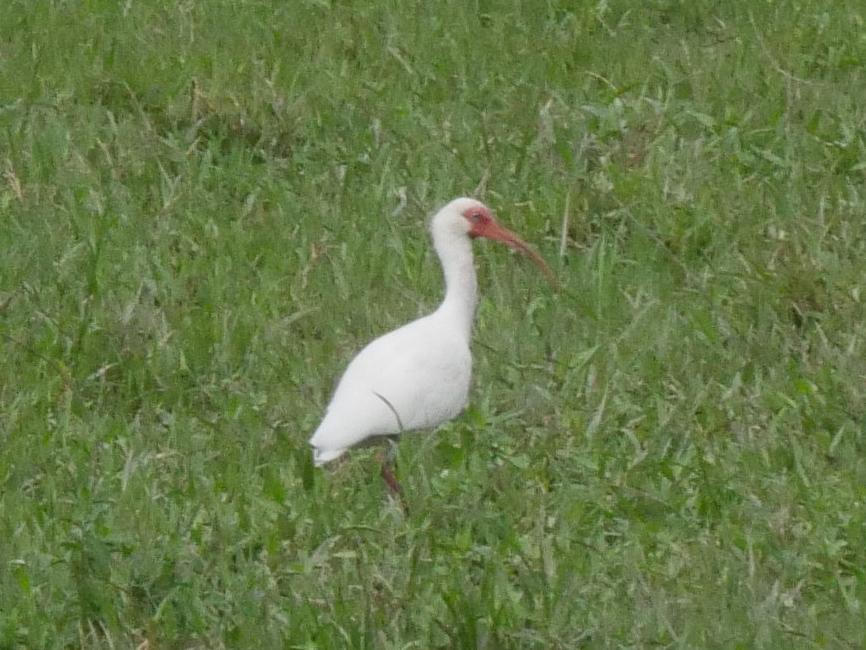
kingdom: Animalia
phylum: Chordata
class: Aves
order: Pelecaniformes
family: Threskiornithidae
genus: Eudocimus
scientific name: Eudocimus albus
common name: White ibis
